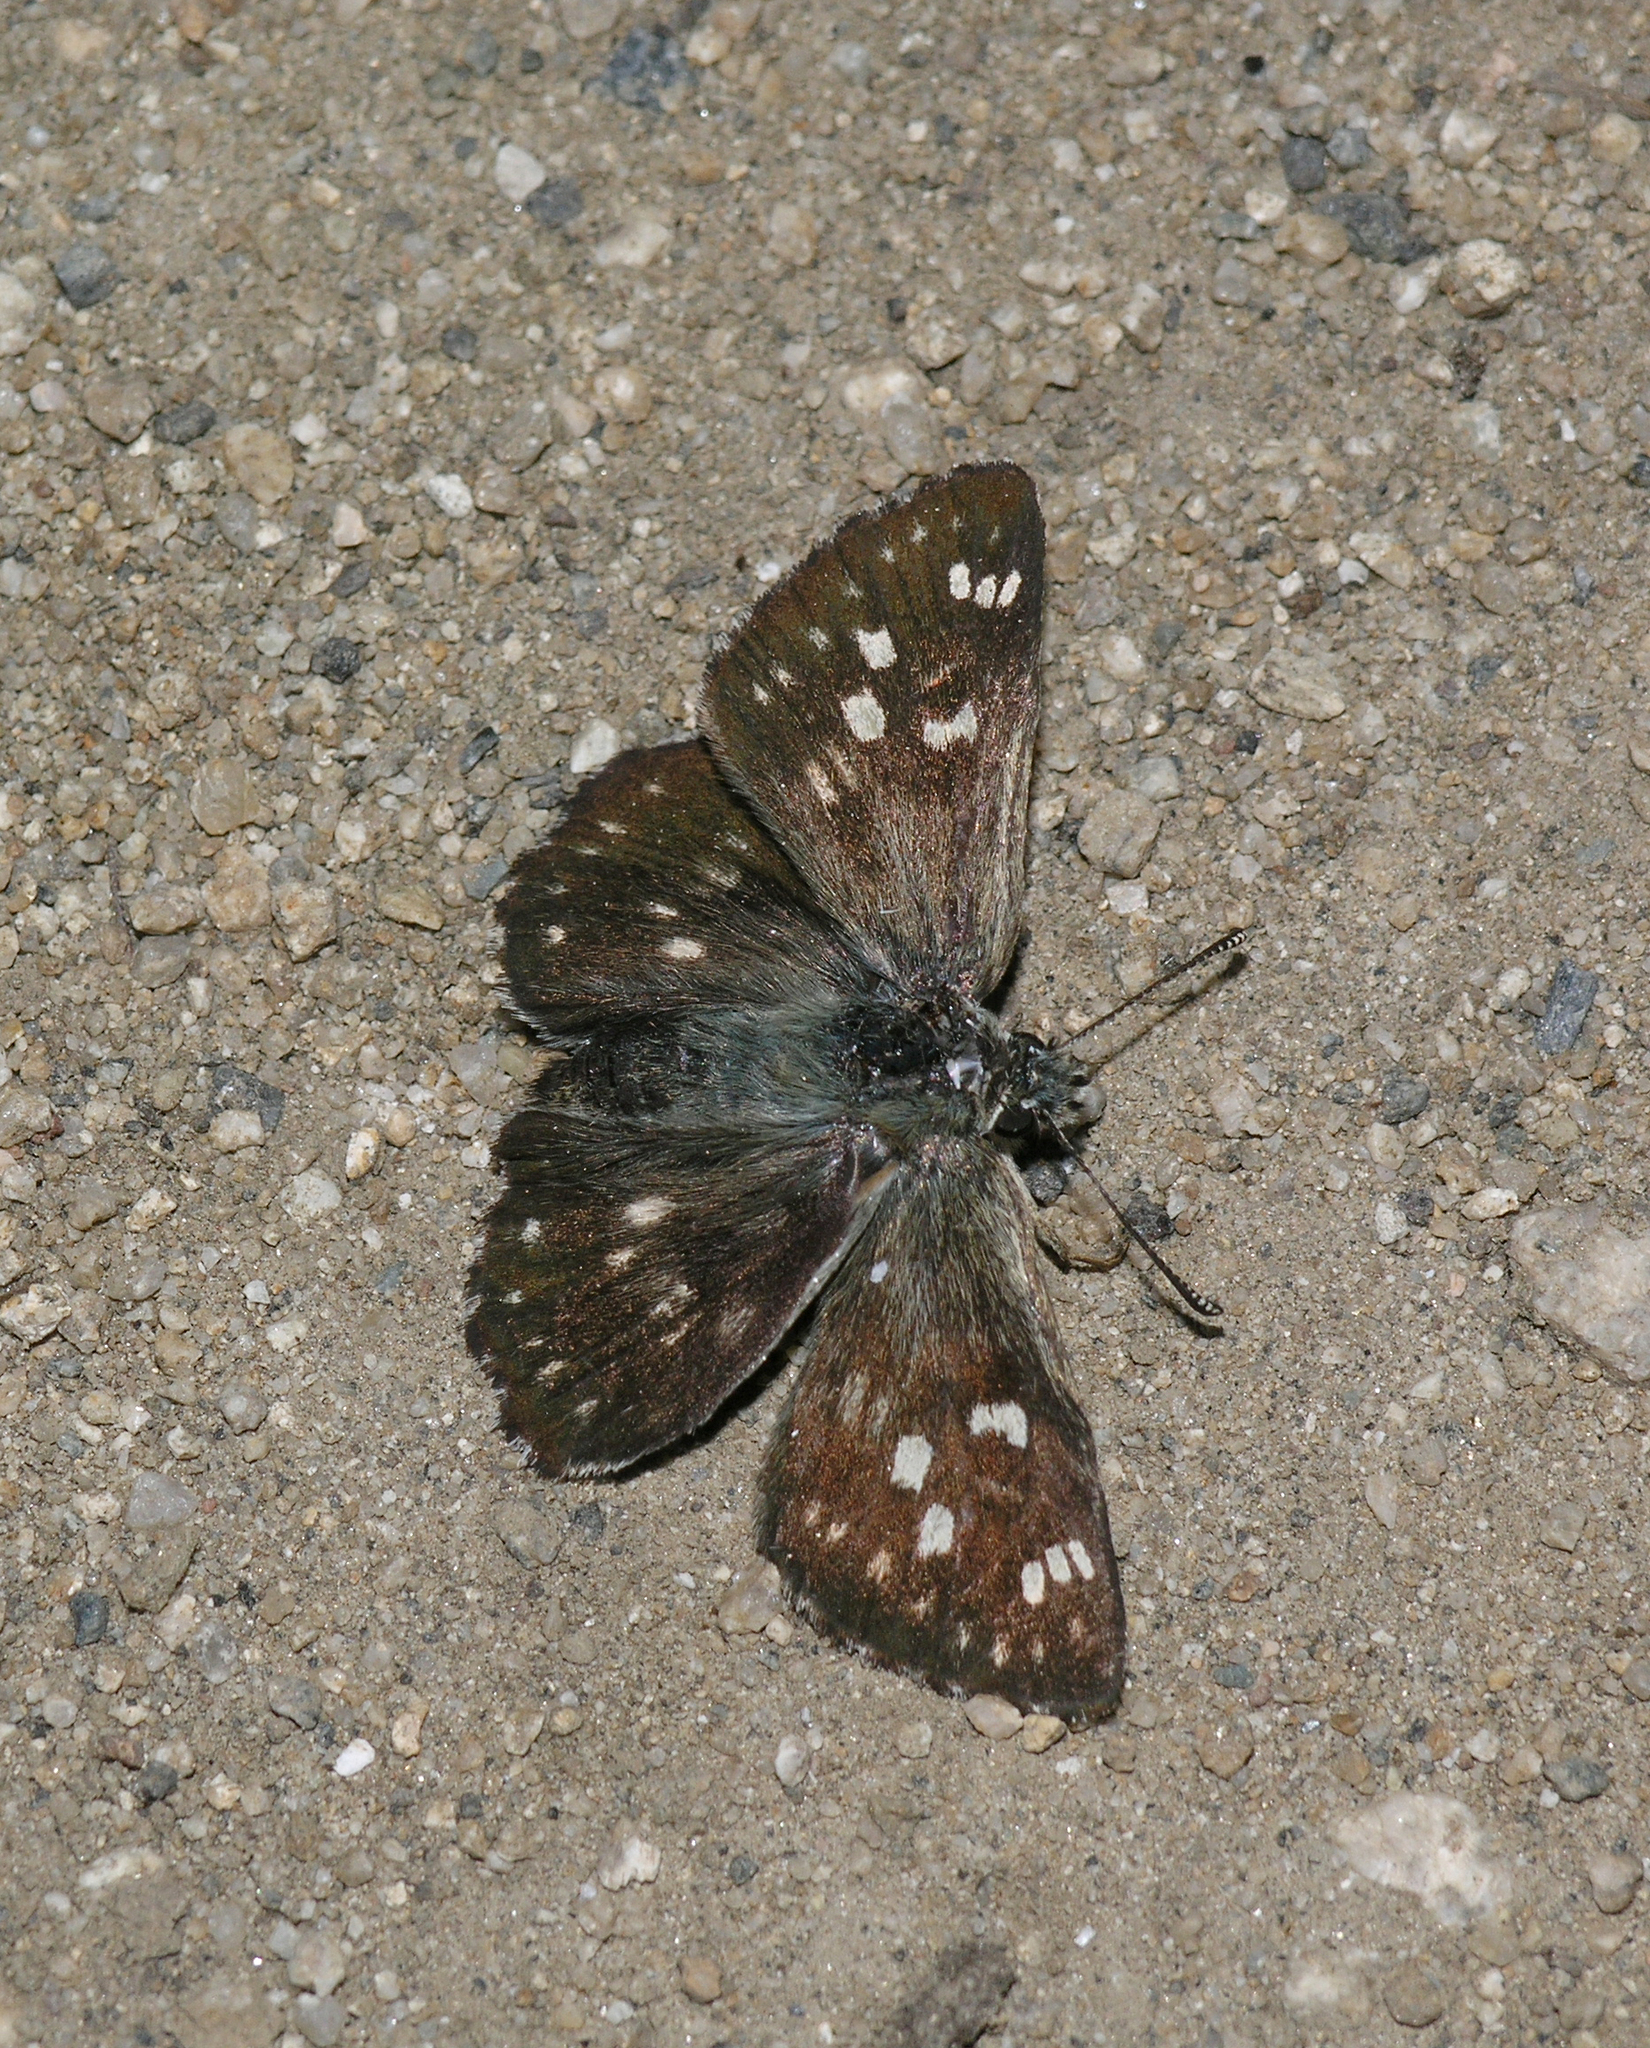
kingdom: Animalia
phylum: Arthropoda
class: Insecta
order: Lepidoptera
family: Hesperiidae
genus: Syrichtus
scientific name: Syrichtus proto
